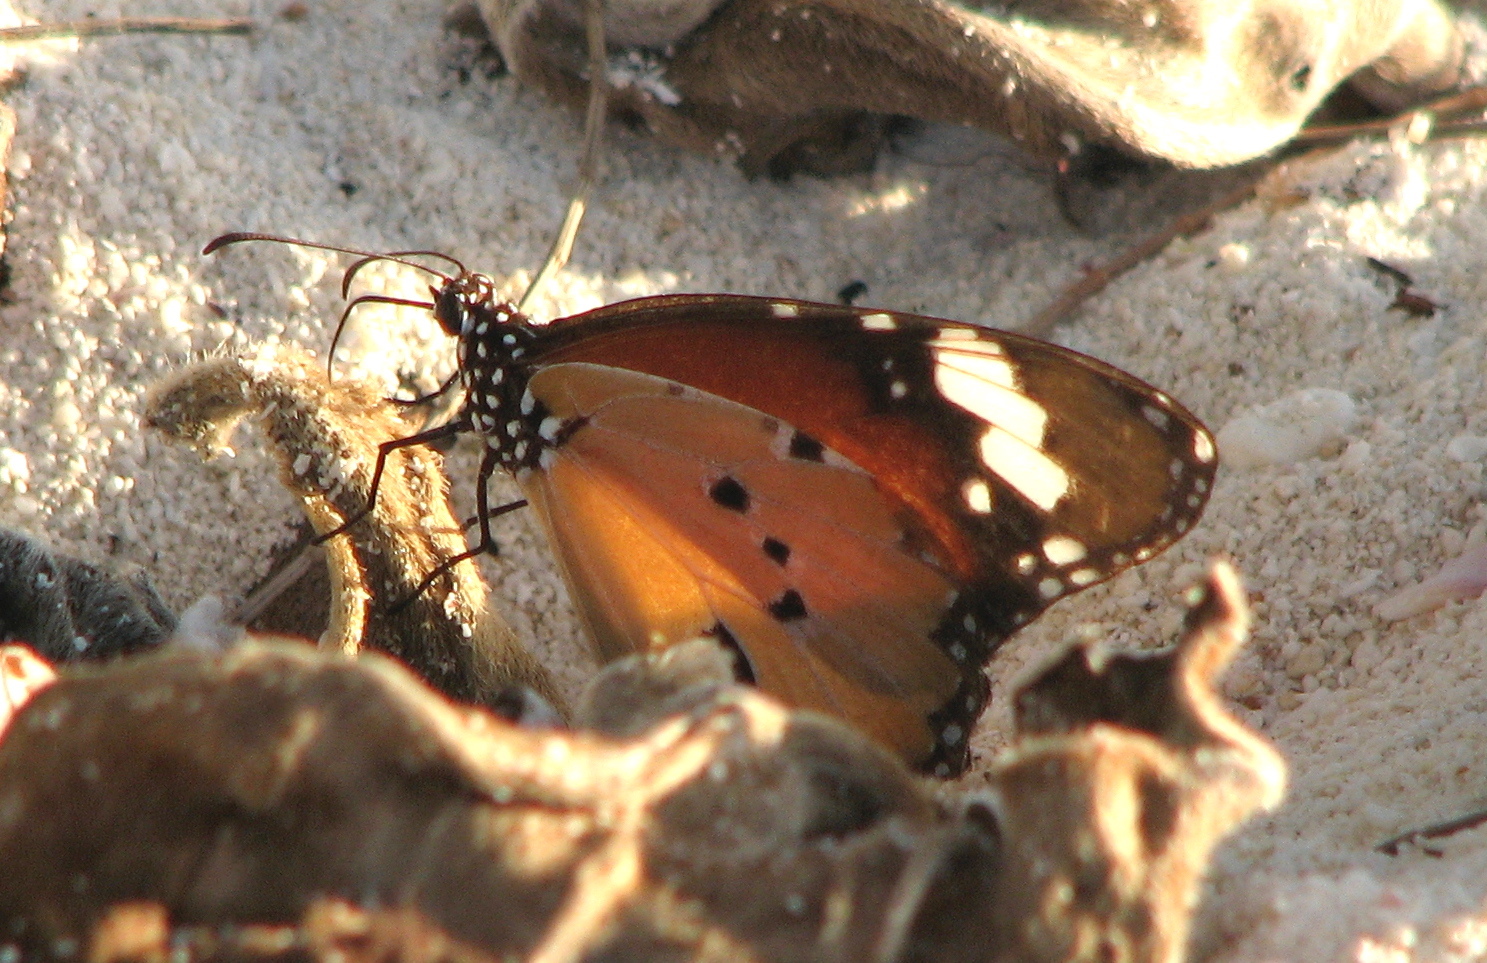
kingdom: Animalia
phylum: Arthropoda
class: Insecta
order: Lepidoptera
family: Nymphalidae
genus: Danaus
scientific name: Danaus chrysippus
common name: Plain tiger
